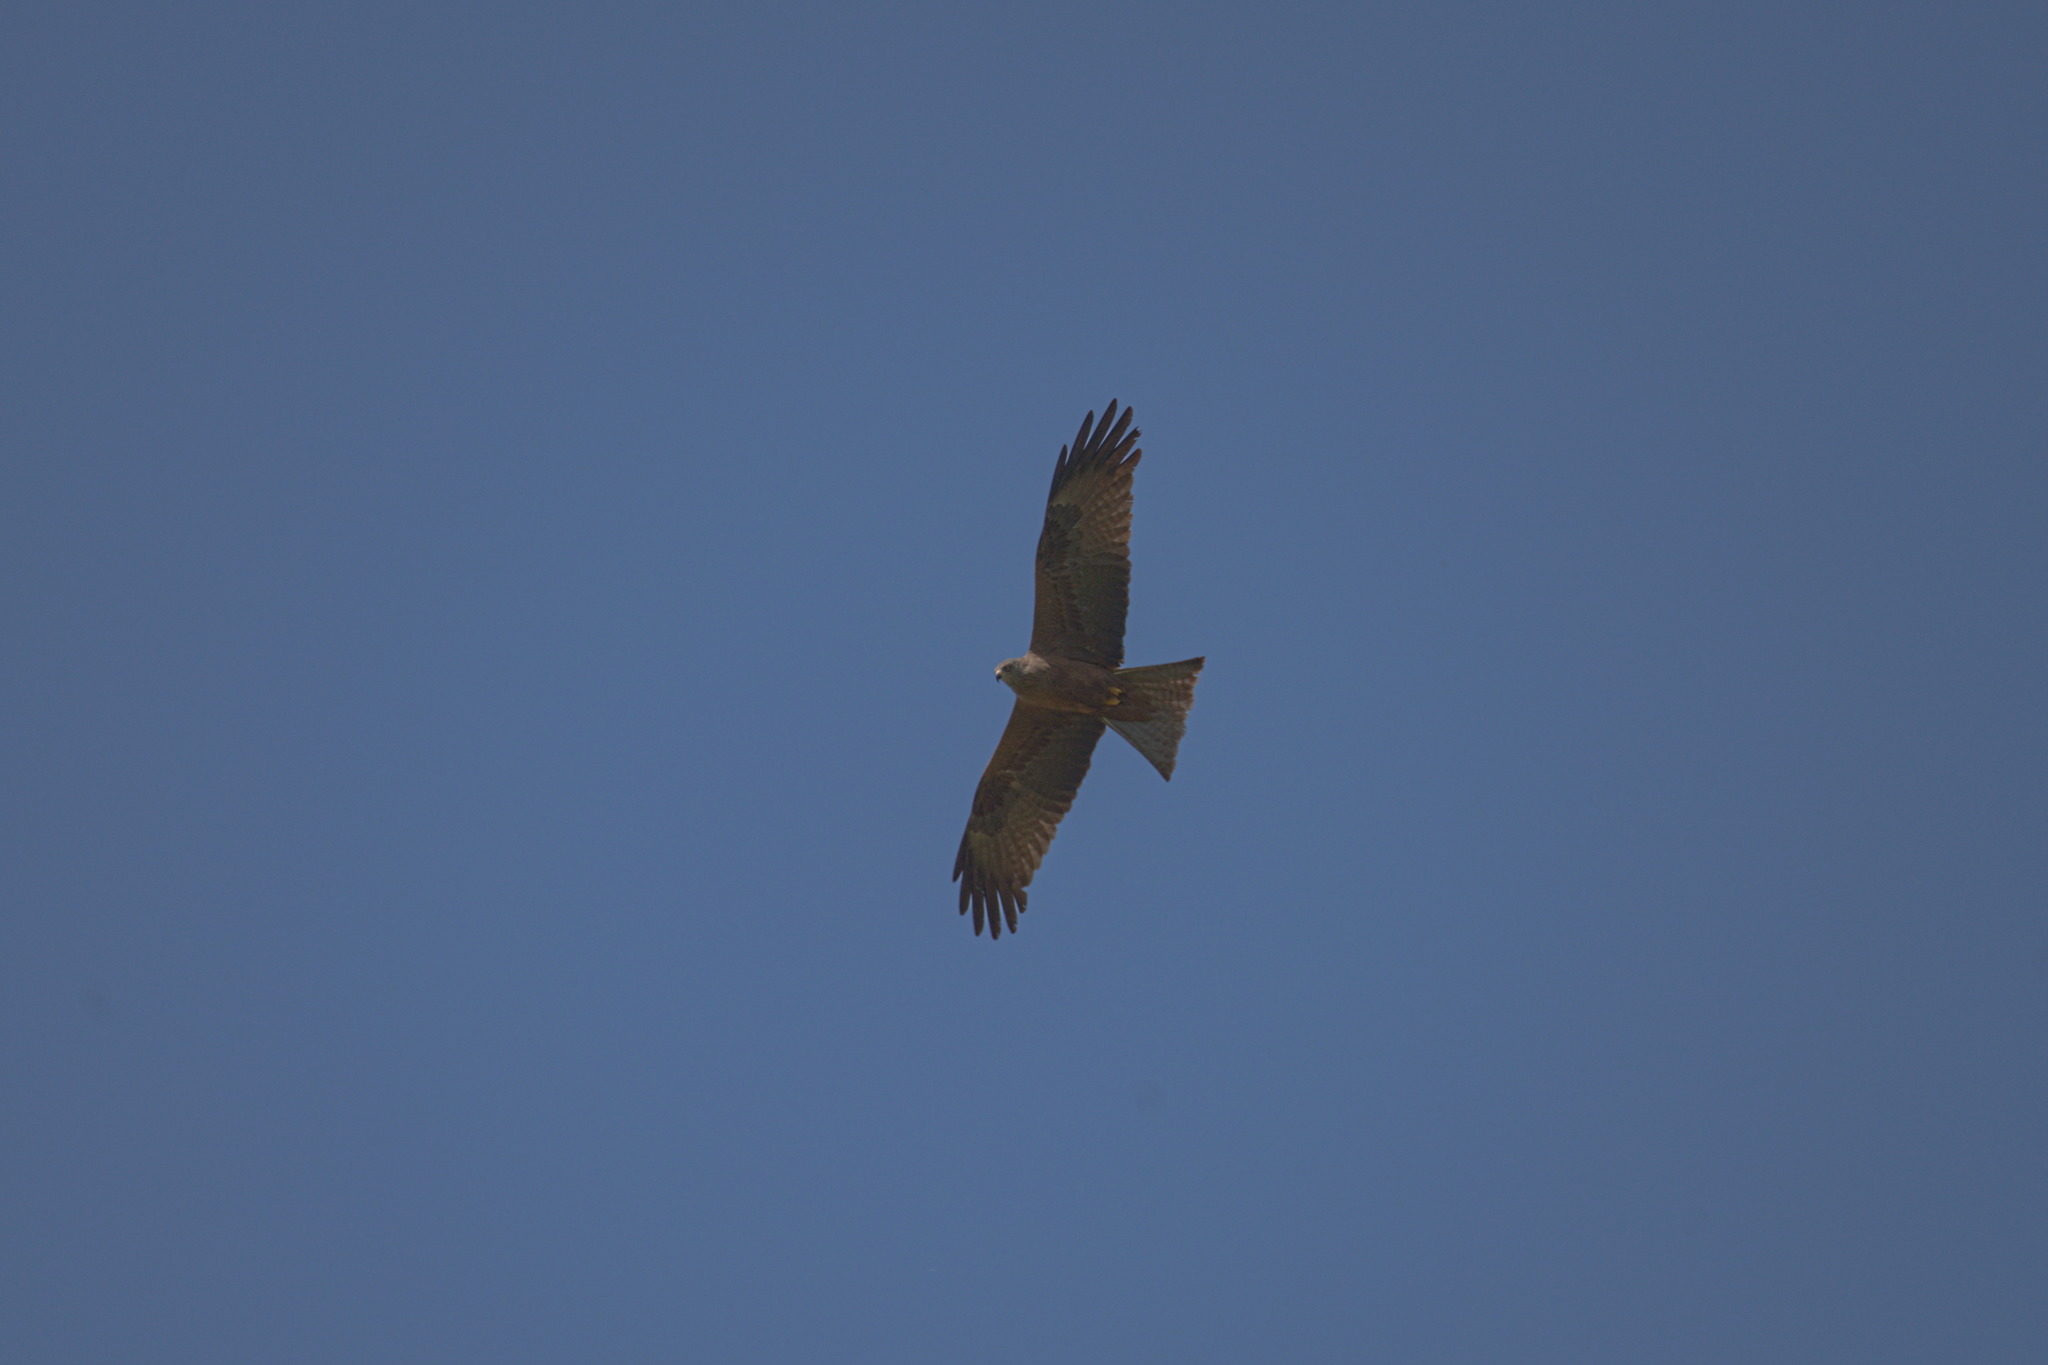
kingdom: Animalia
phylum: Chordata
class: Aves
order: Accipitriformes
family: Accipitridae
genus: Milvus
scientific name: Milvus migrans
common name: Black kite
